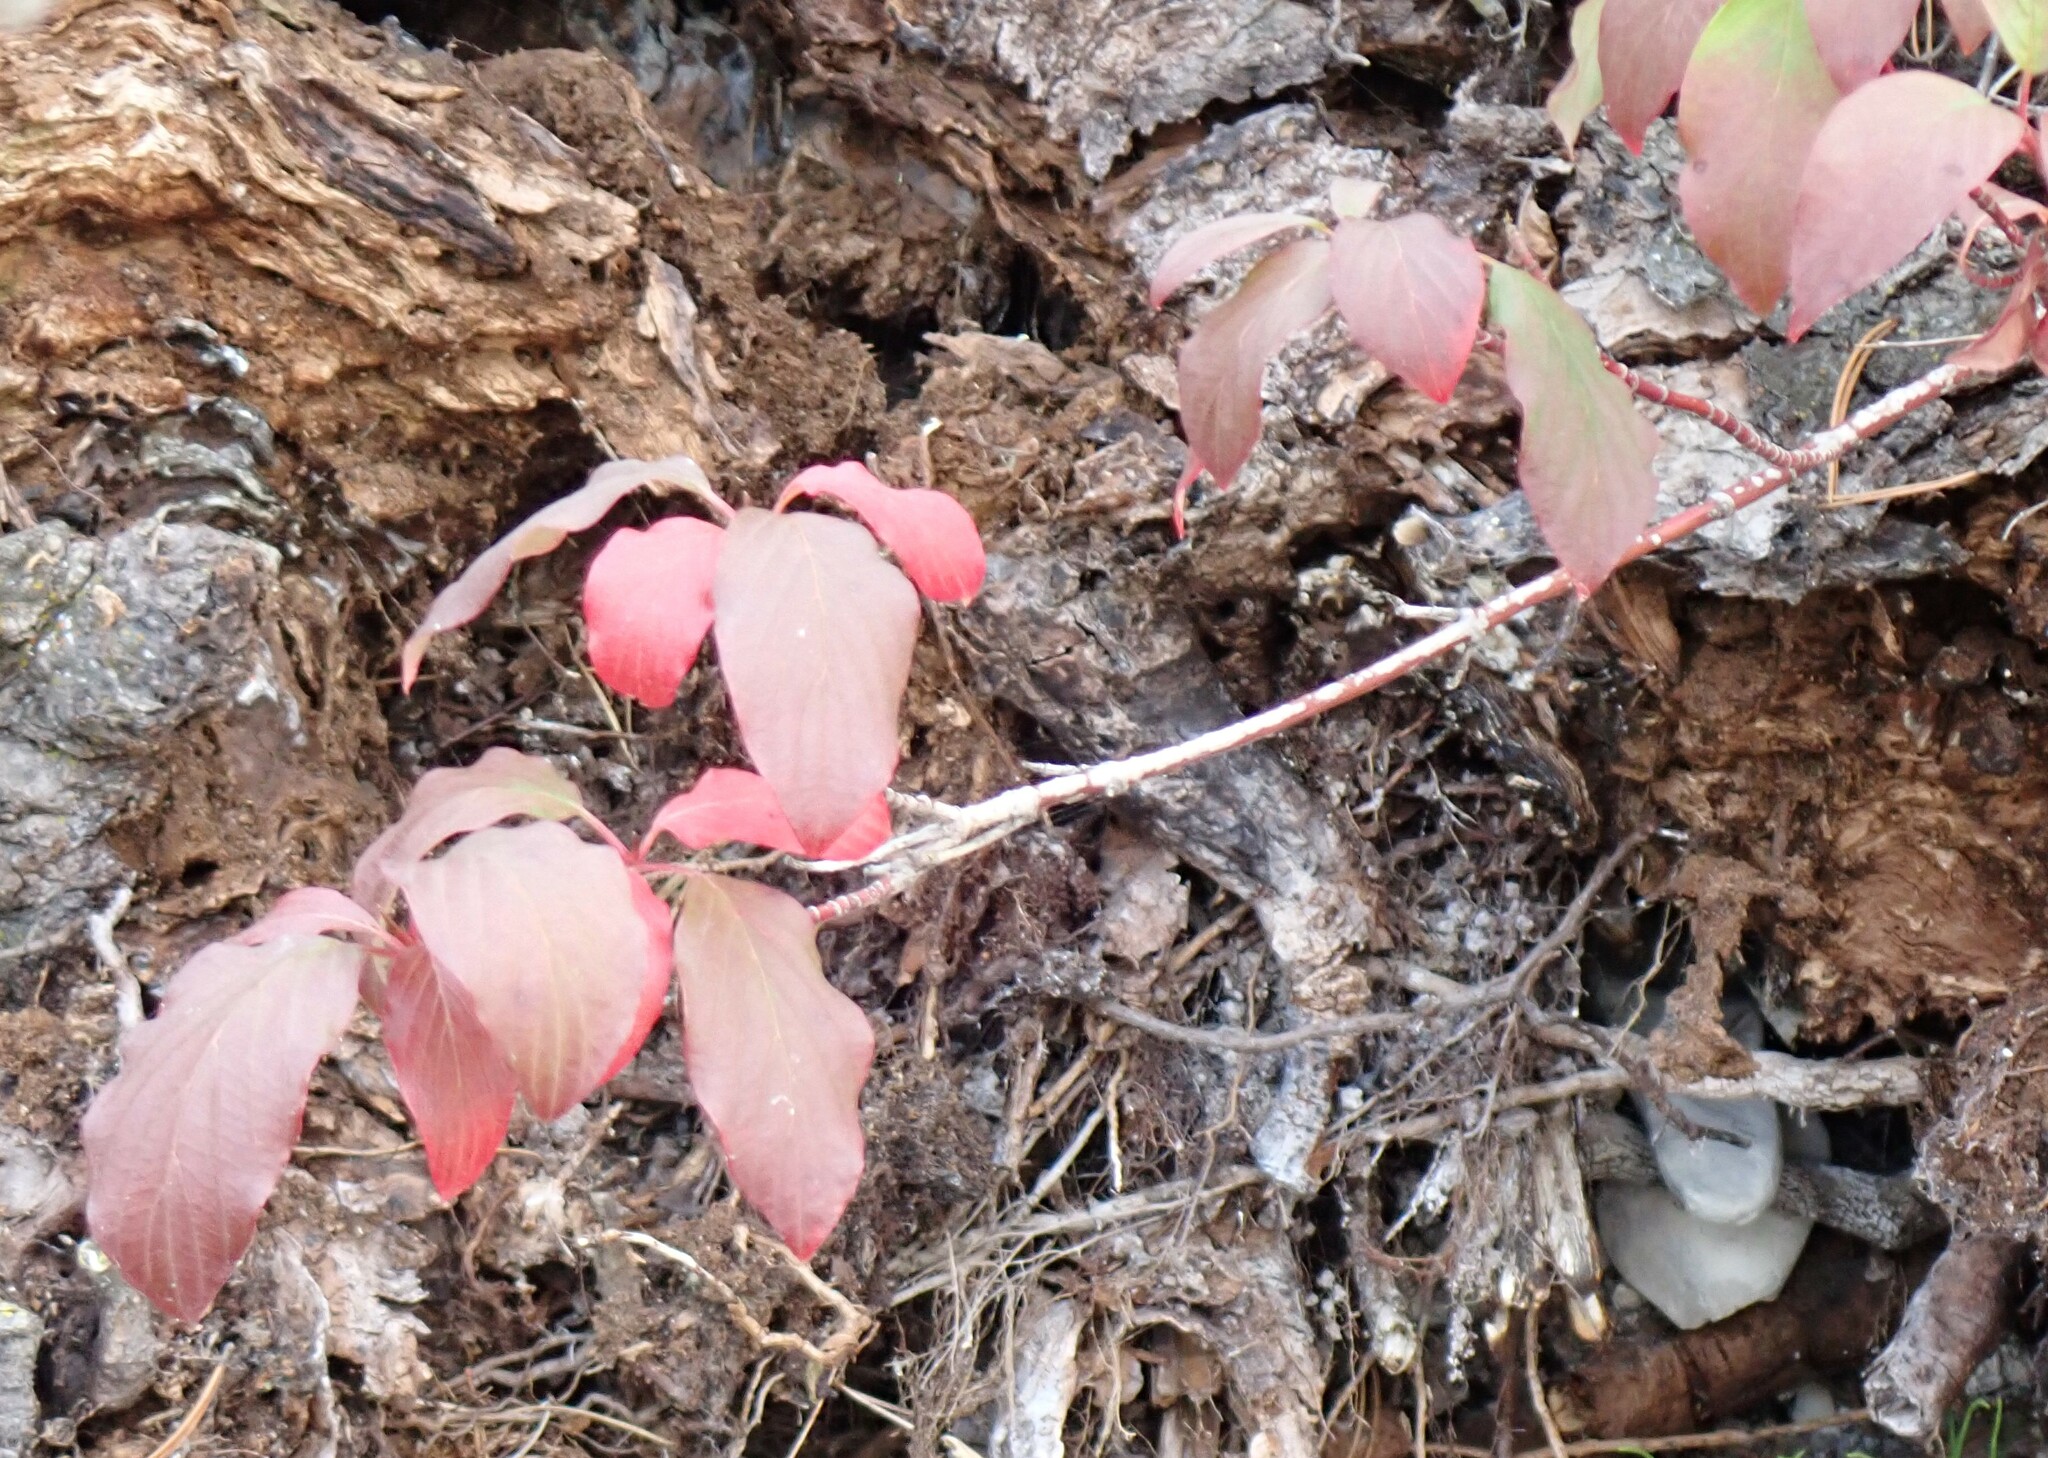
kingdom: Plantae
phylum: Tracheophyta
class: Magnoliopsida
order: Cornales
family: Cornaceae
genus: Cornus
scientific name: Cornus sericea
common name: Red-osier dogwood
